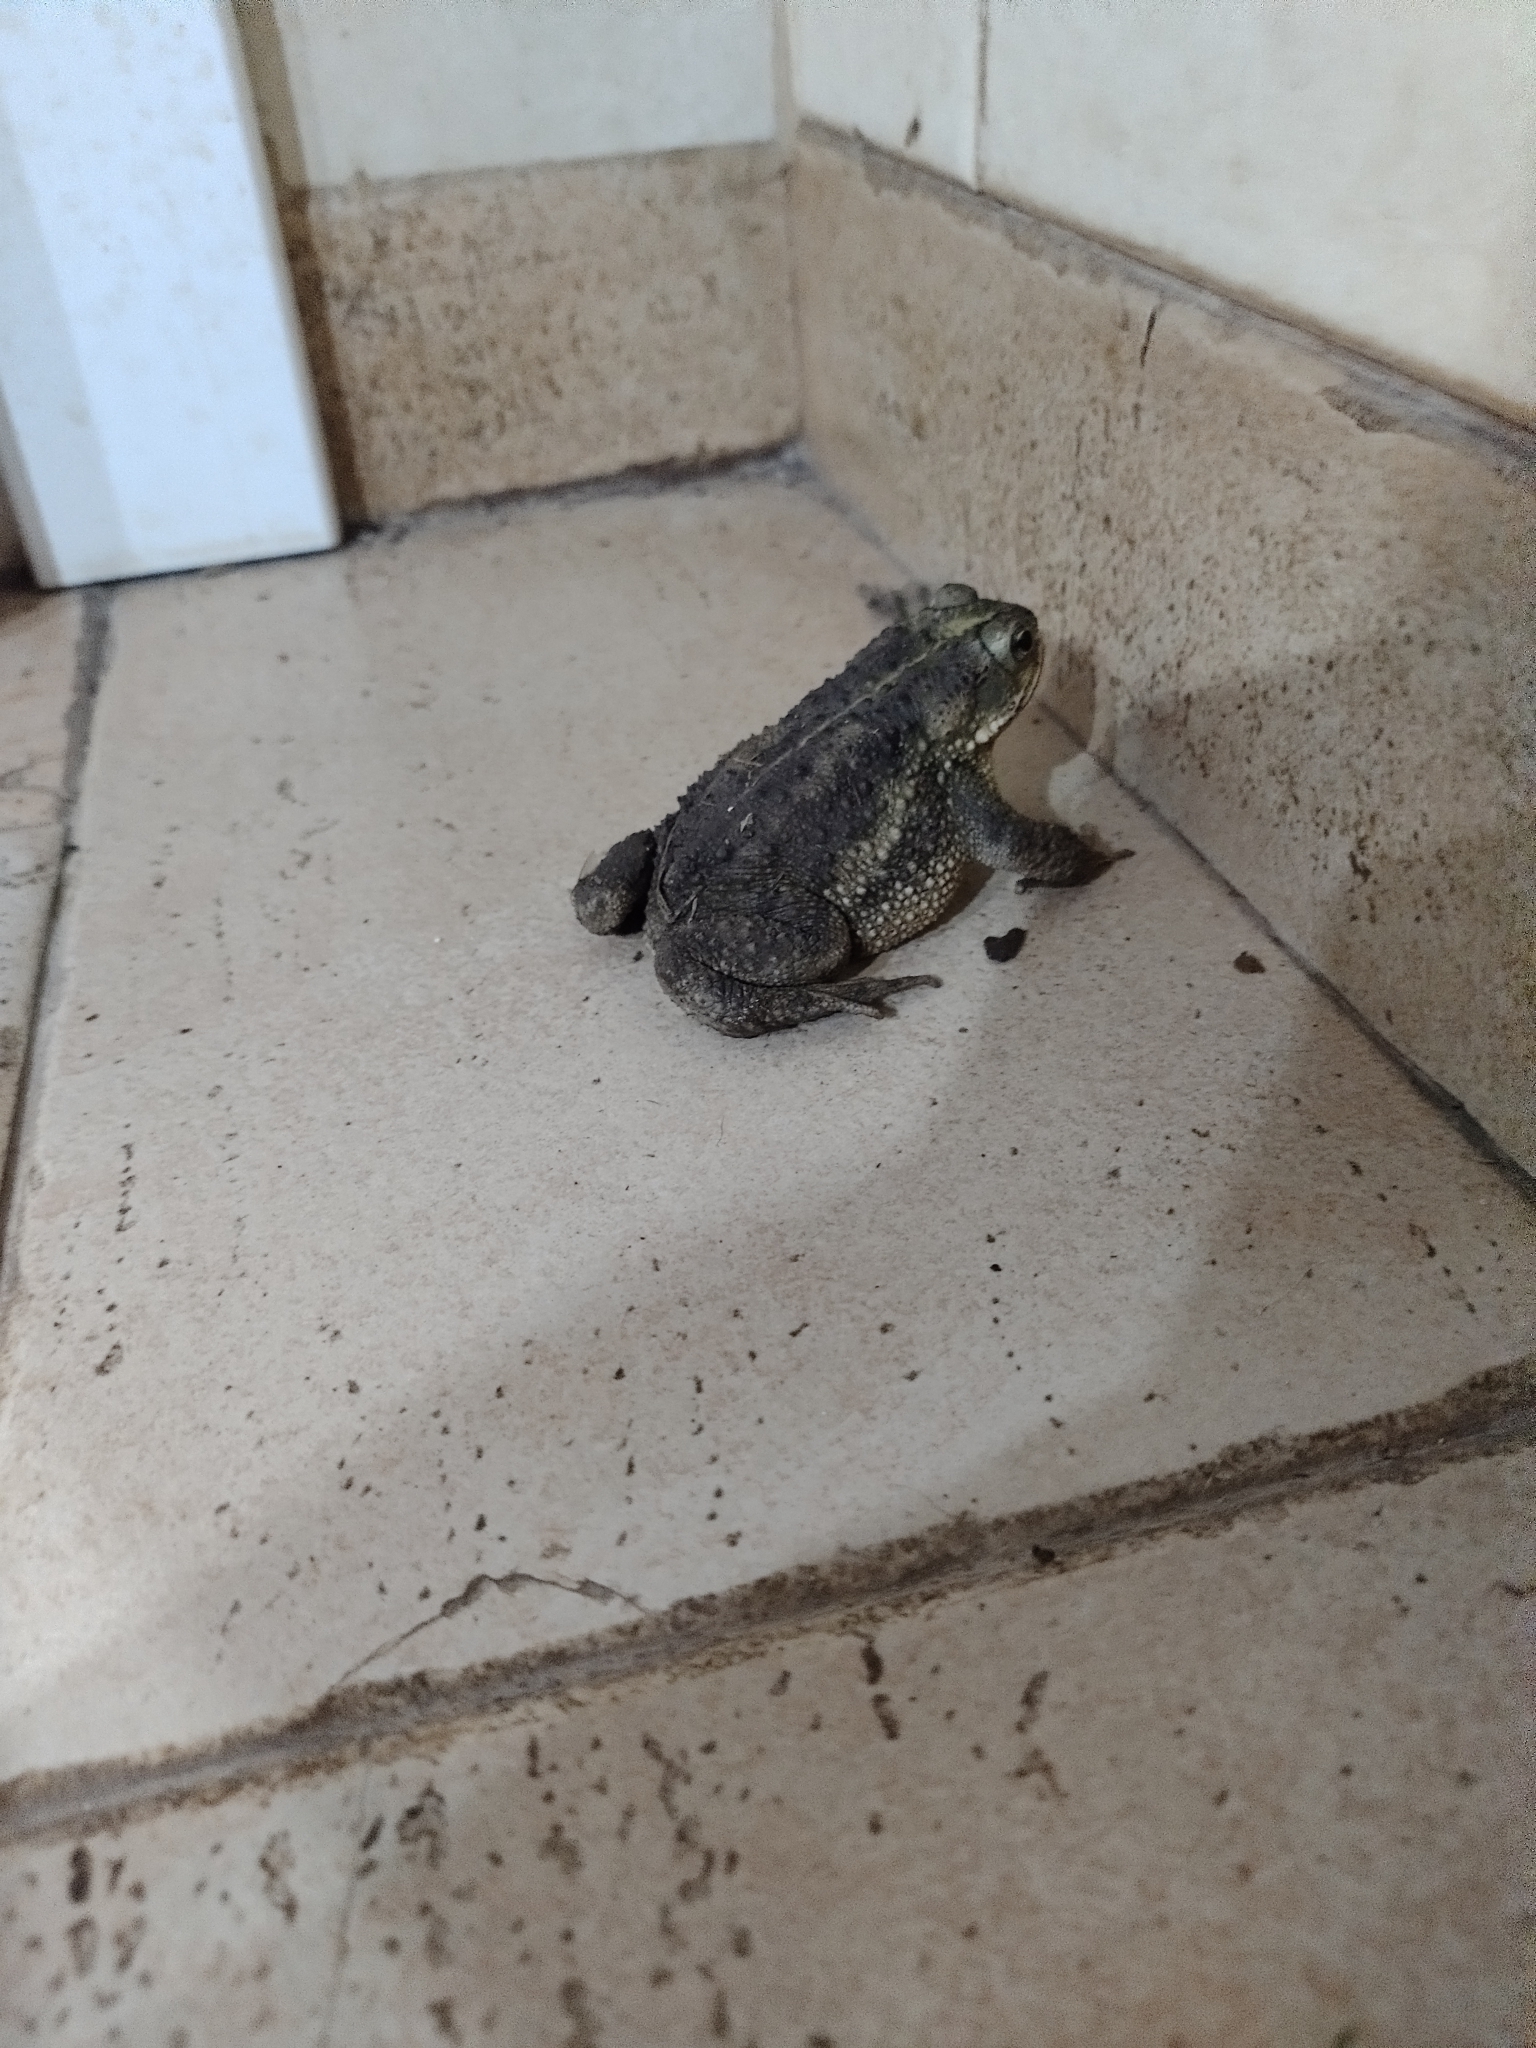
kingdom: Animalia
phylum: Chordata
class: Amphibia
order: Anura
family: Bufonidae
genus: Rhinella
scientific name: Rhinella dorbignyi
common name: D´orbigny’s toad
